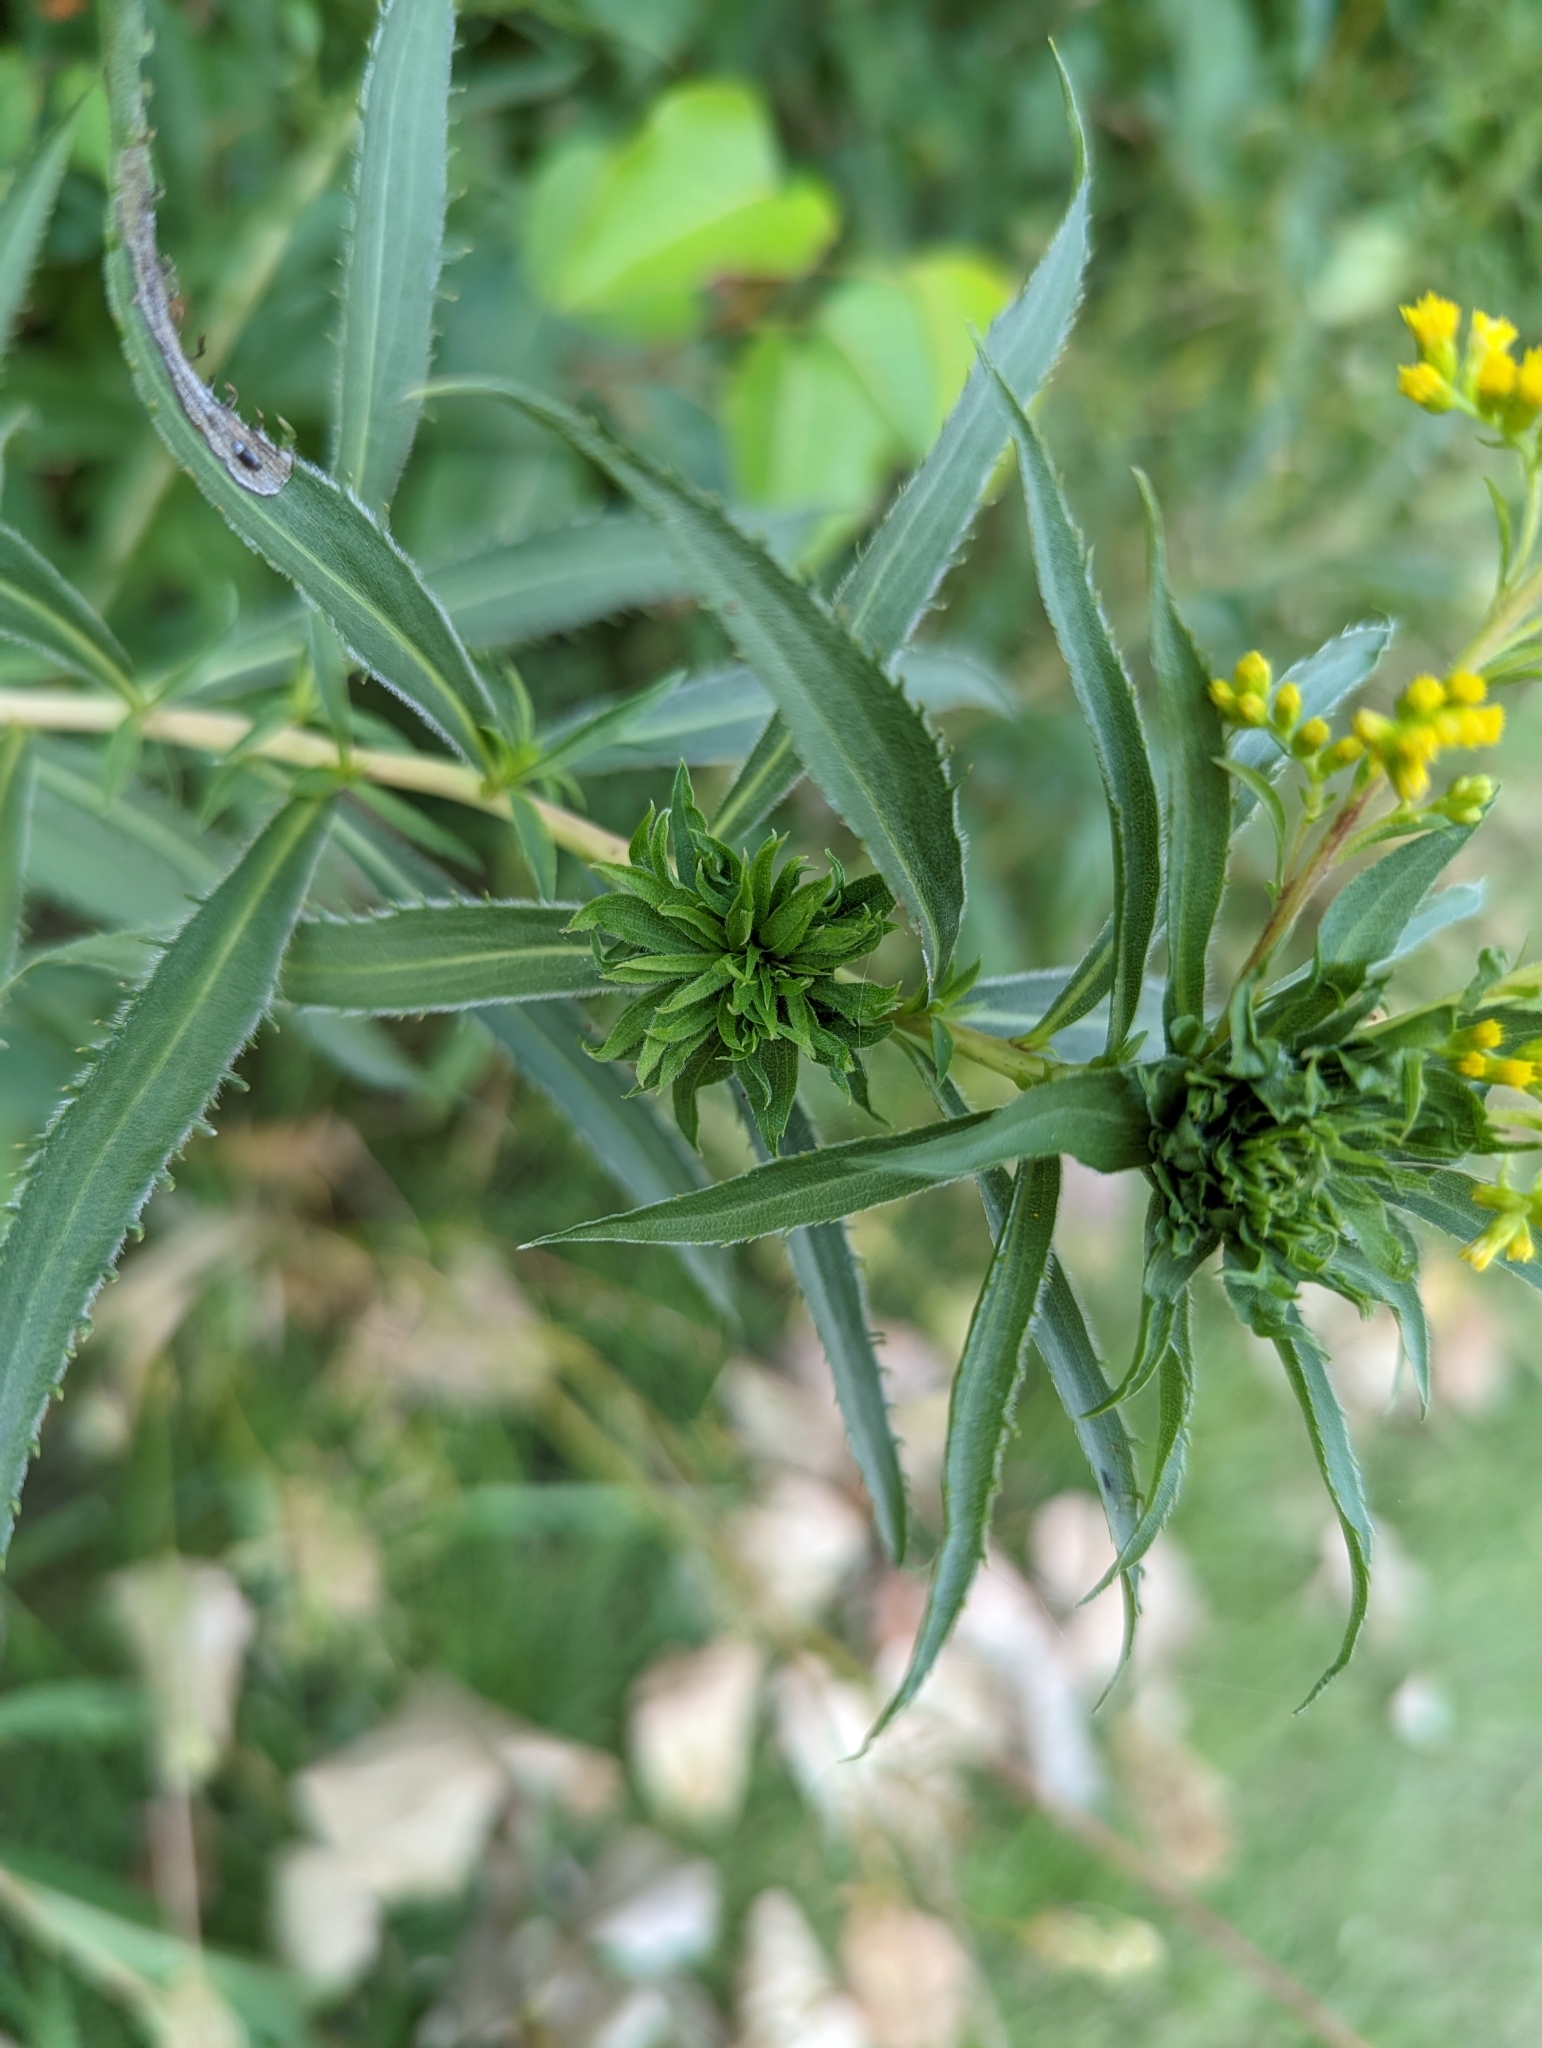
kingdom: Animalia
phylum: Arthropoda
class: Insecta
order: Diptera
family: Cecidomyiidae
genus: Rhopalomyia
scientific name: Rhopalomyia capitata
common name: Giant goldenrod bunch gall midge
